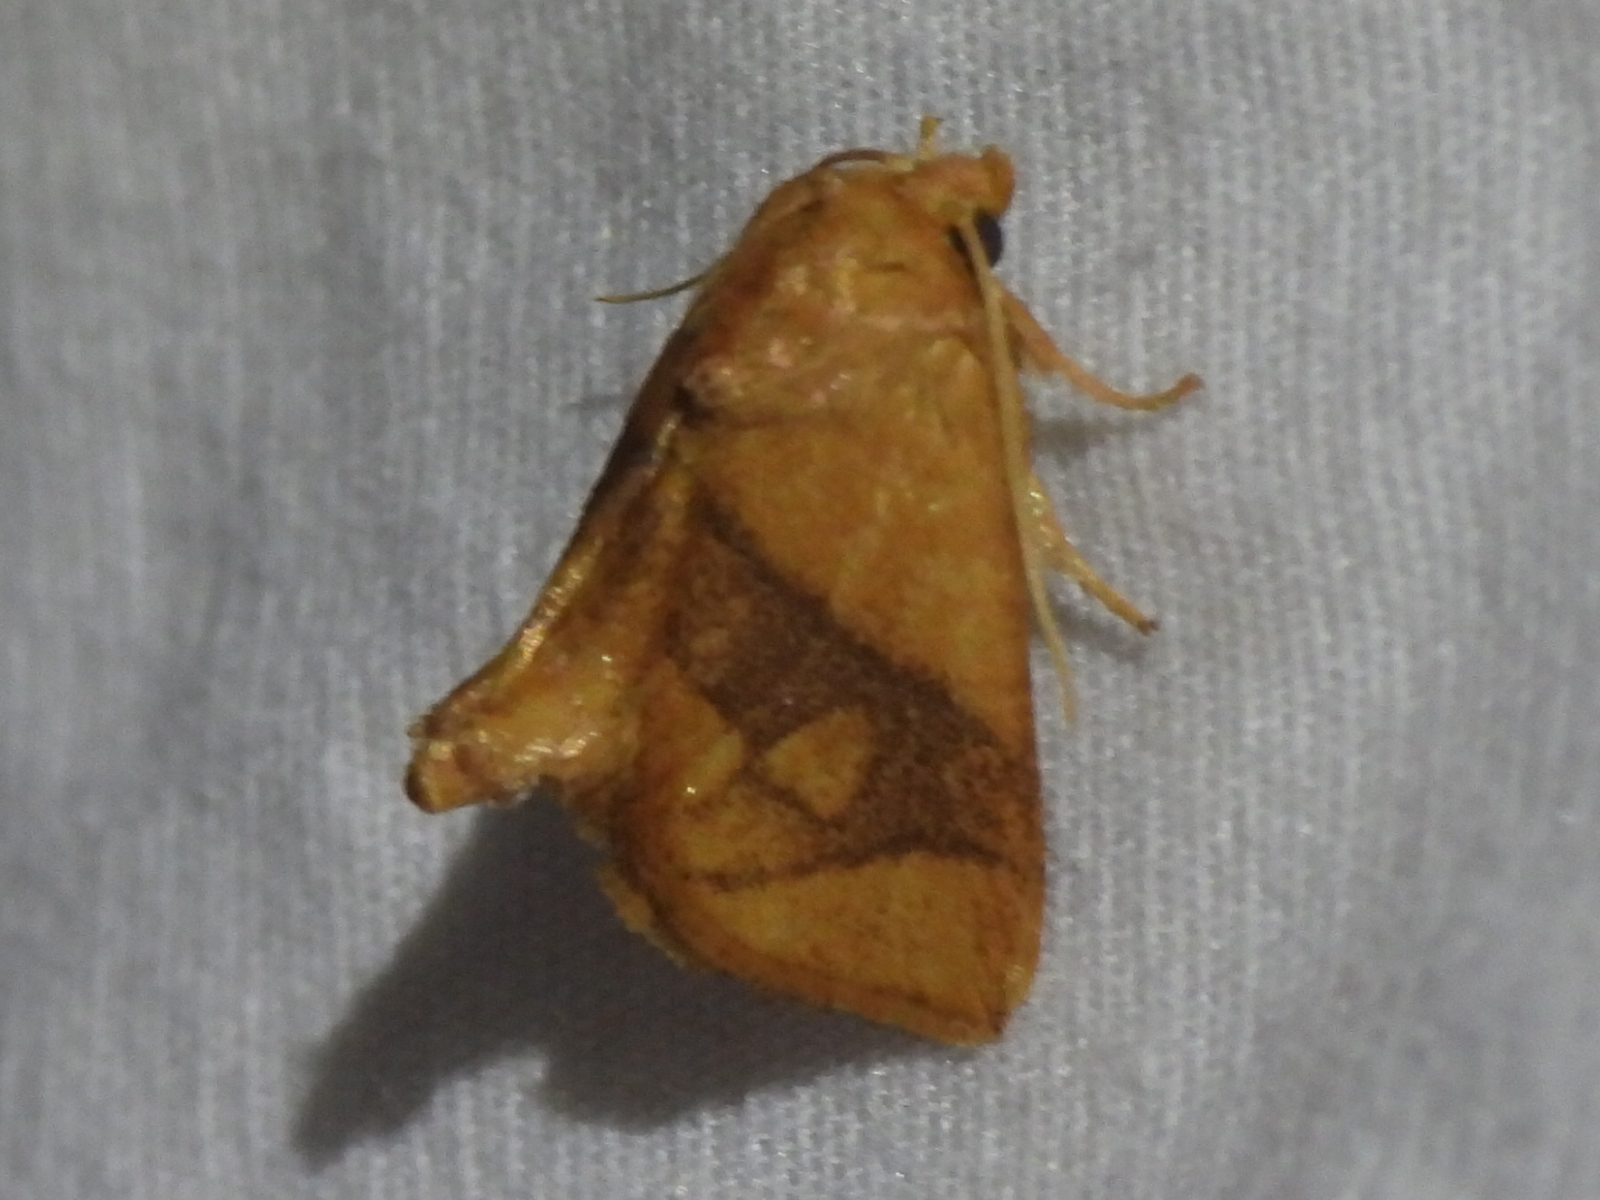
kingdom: Animalia
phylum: Arthropoda
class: Insecta
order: Lepidoptera
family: Limacodidae
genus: Apoda
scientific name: Apoda y-inversa
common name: Yellow-collared slug moth
